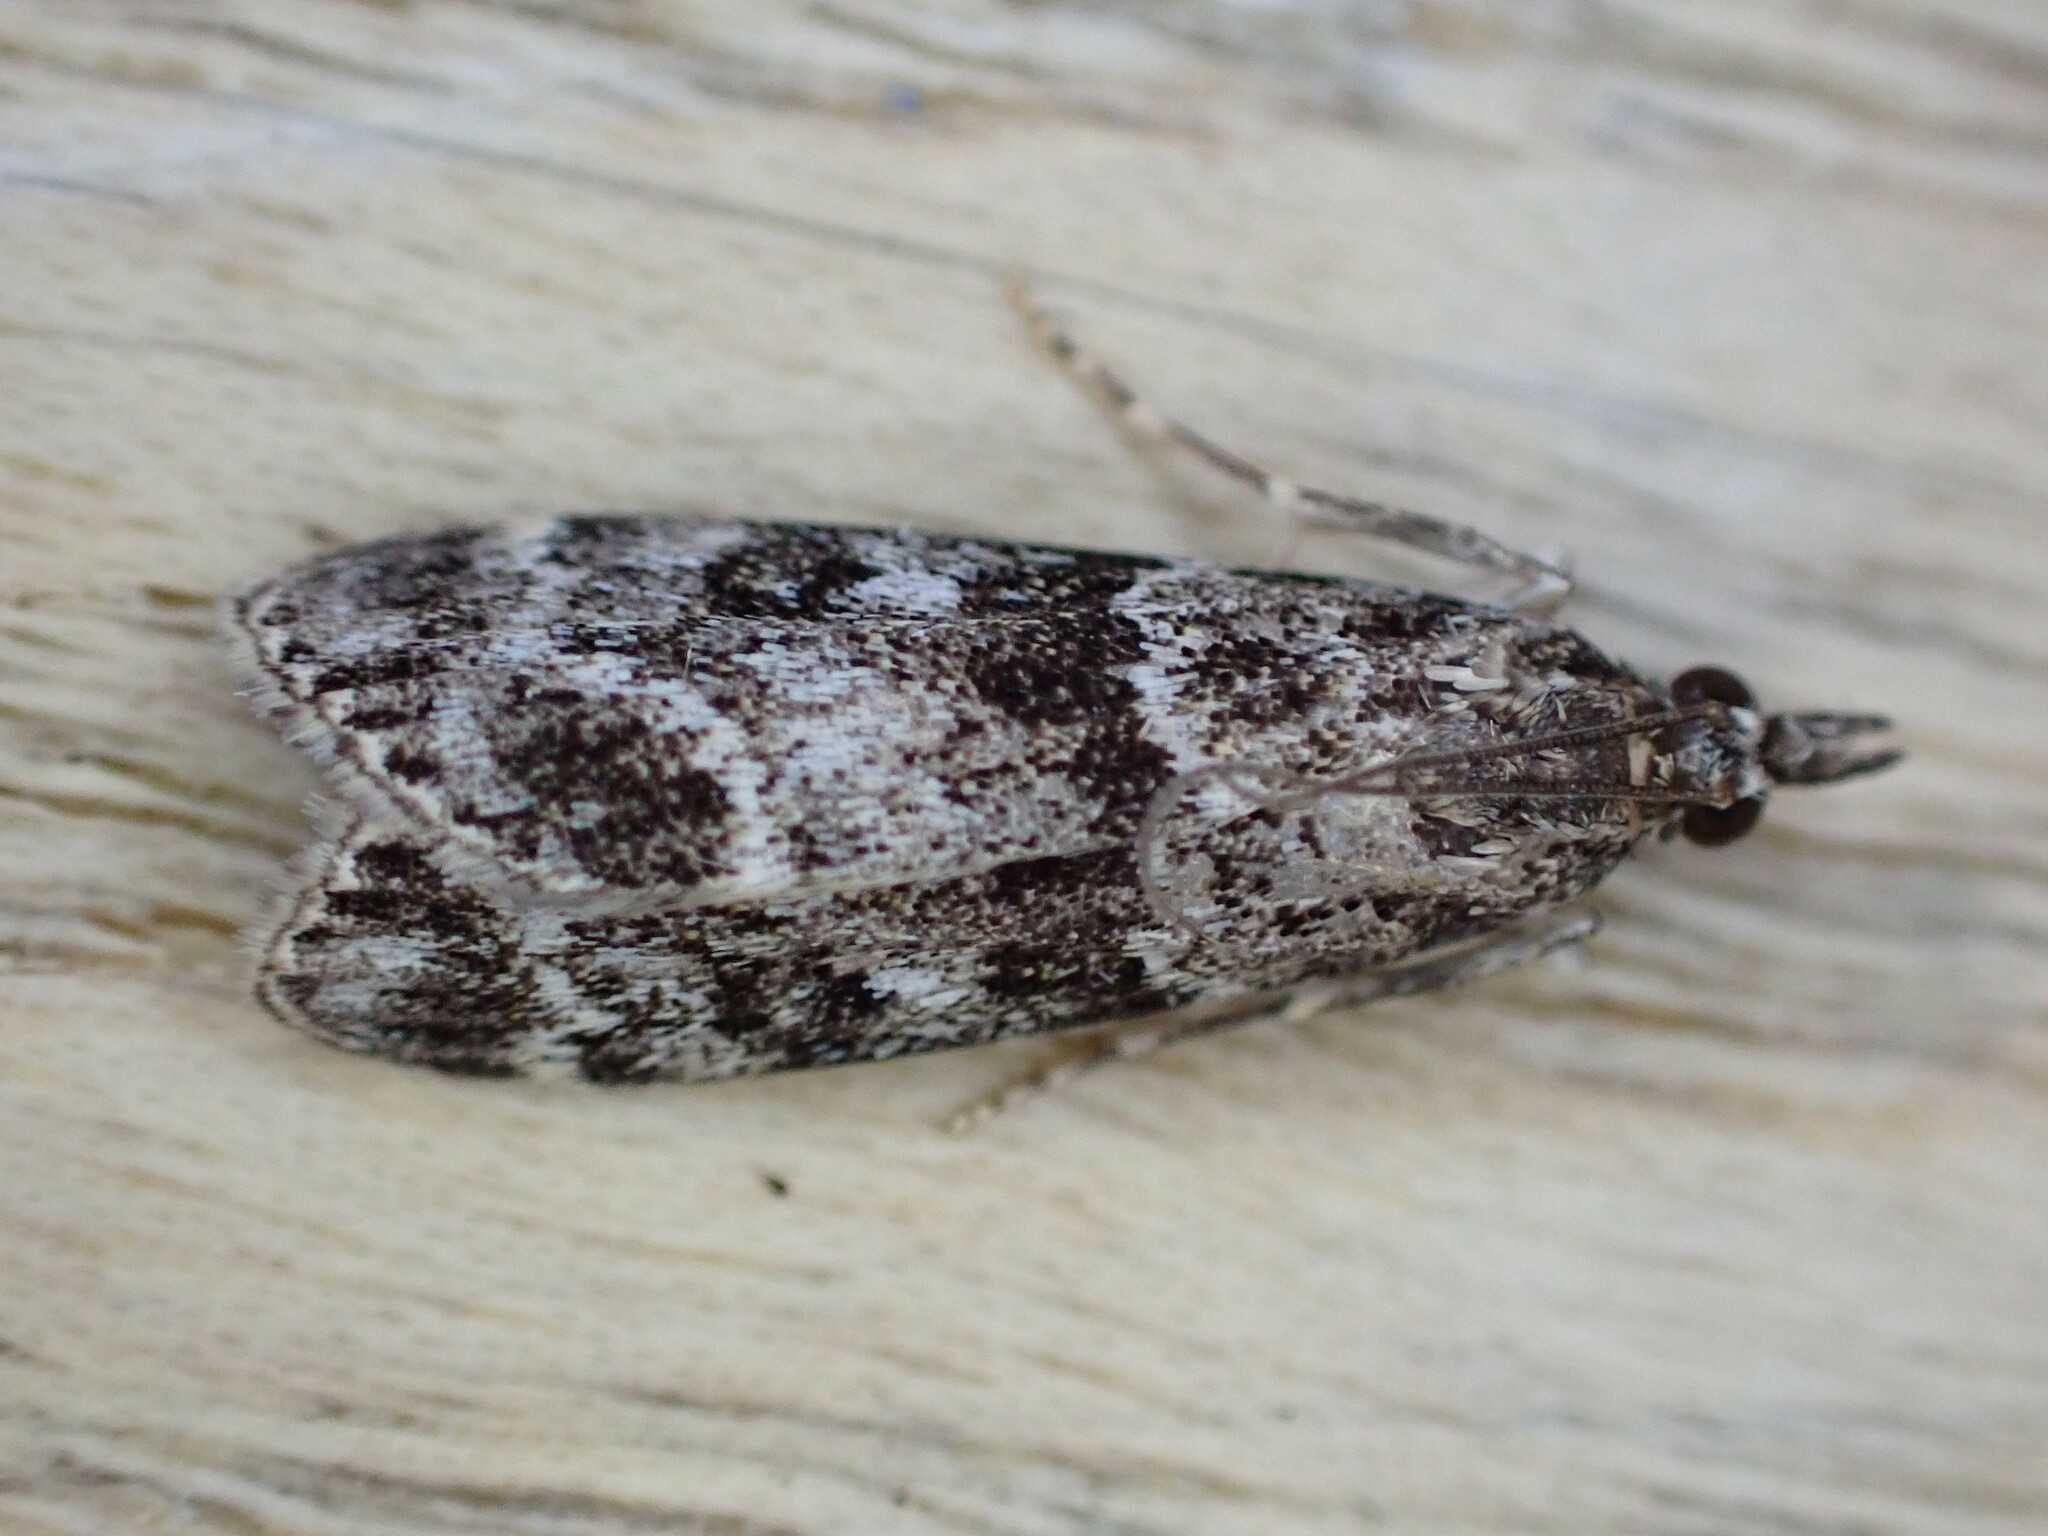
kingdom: Animalia
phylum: Arthropoda
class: Insecta
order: Lepidoptera
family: Crambidae
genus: Eudonia
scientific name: Eudonia mercurella
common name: Small grey
